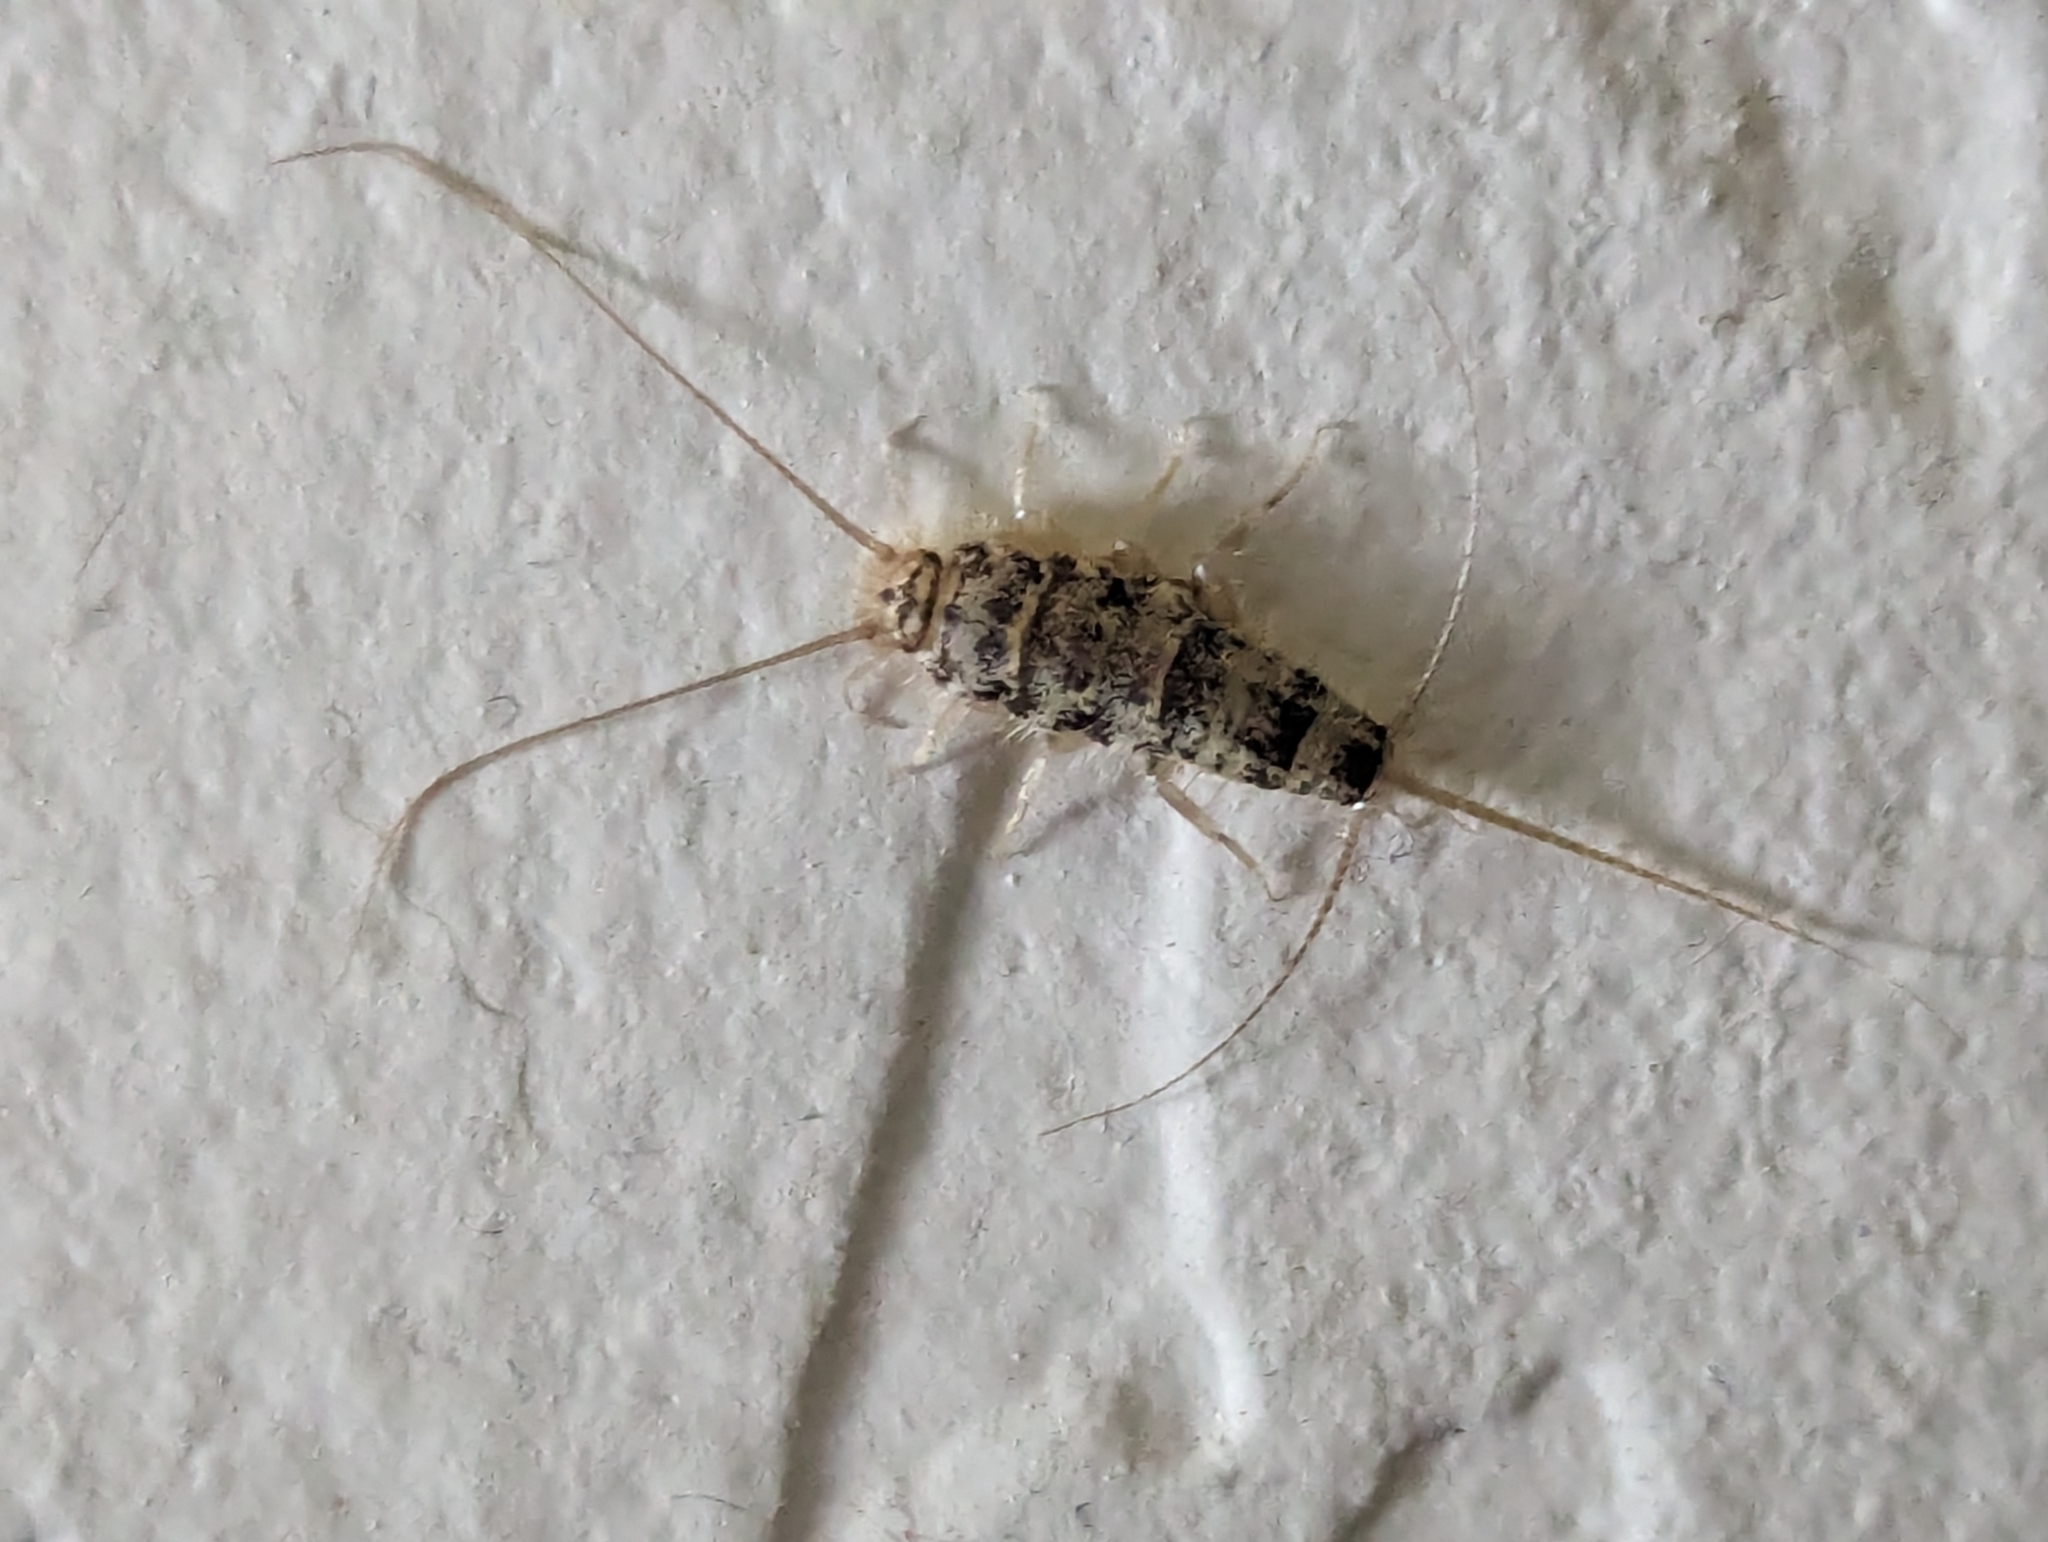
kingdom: Animalia
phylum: Arthropoda
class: Insecta
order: Zygentoma
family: Lepismatidae
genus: Thermobia
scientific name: Thermobia domestica
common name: Firebrat
